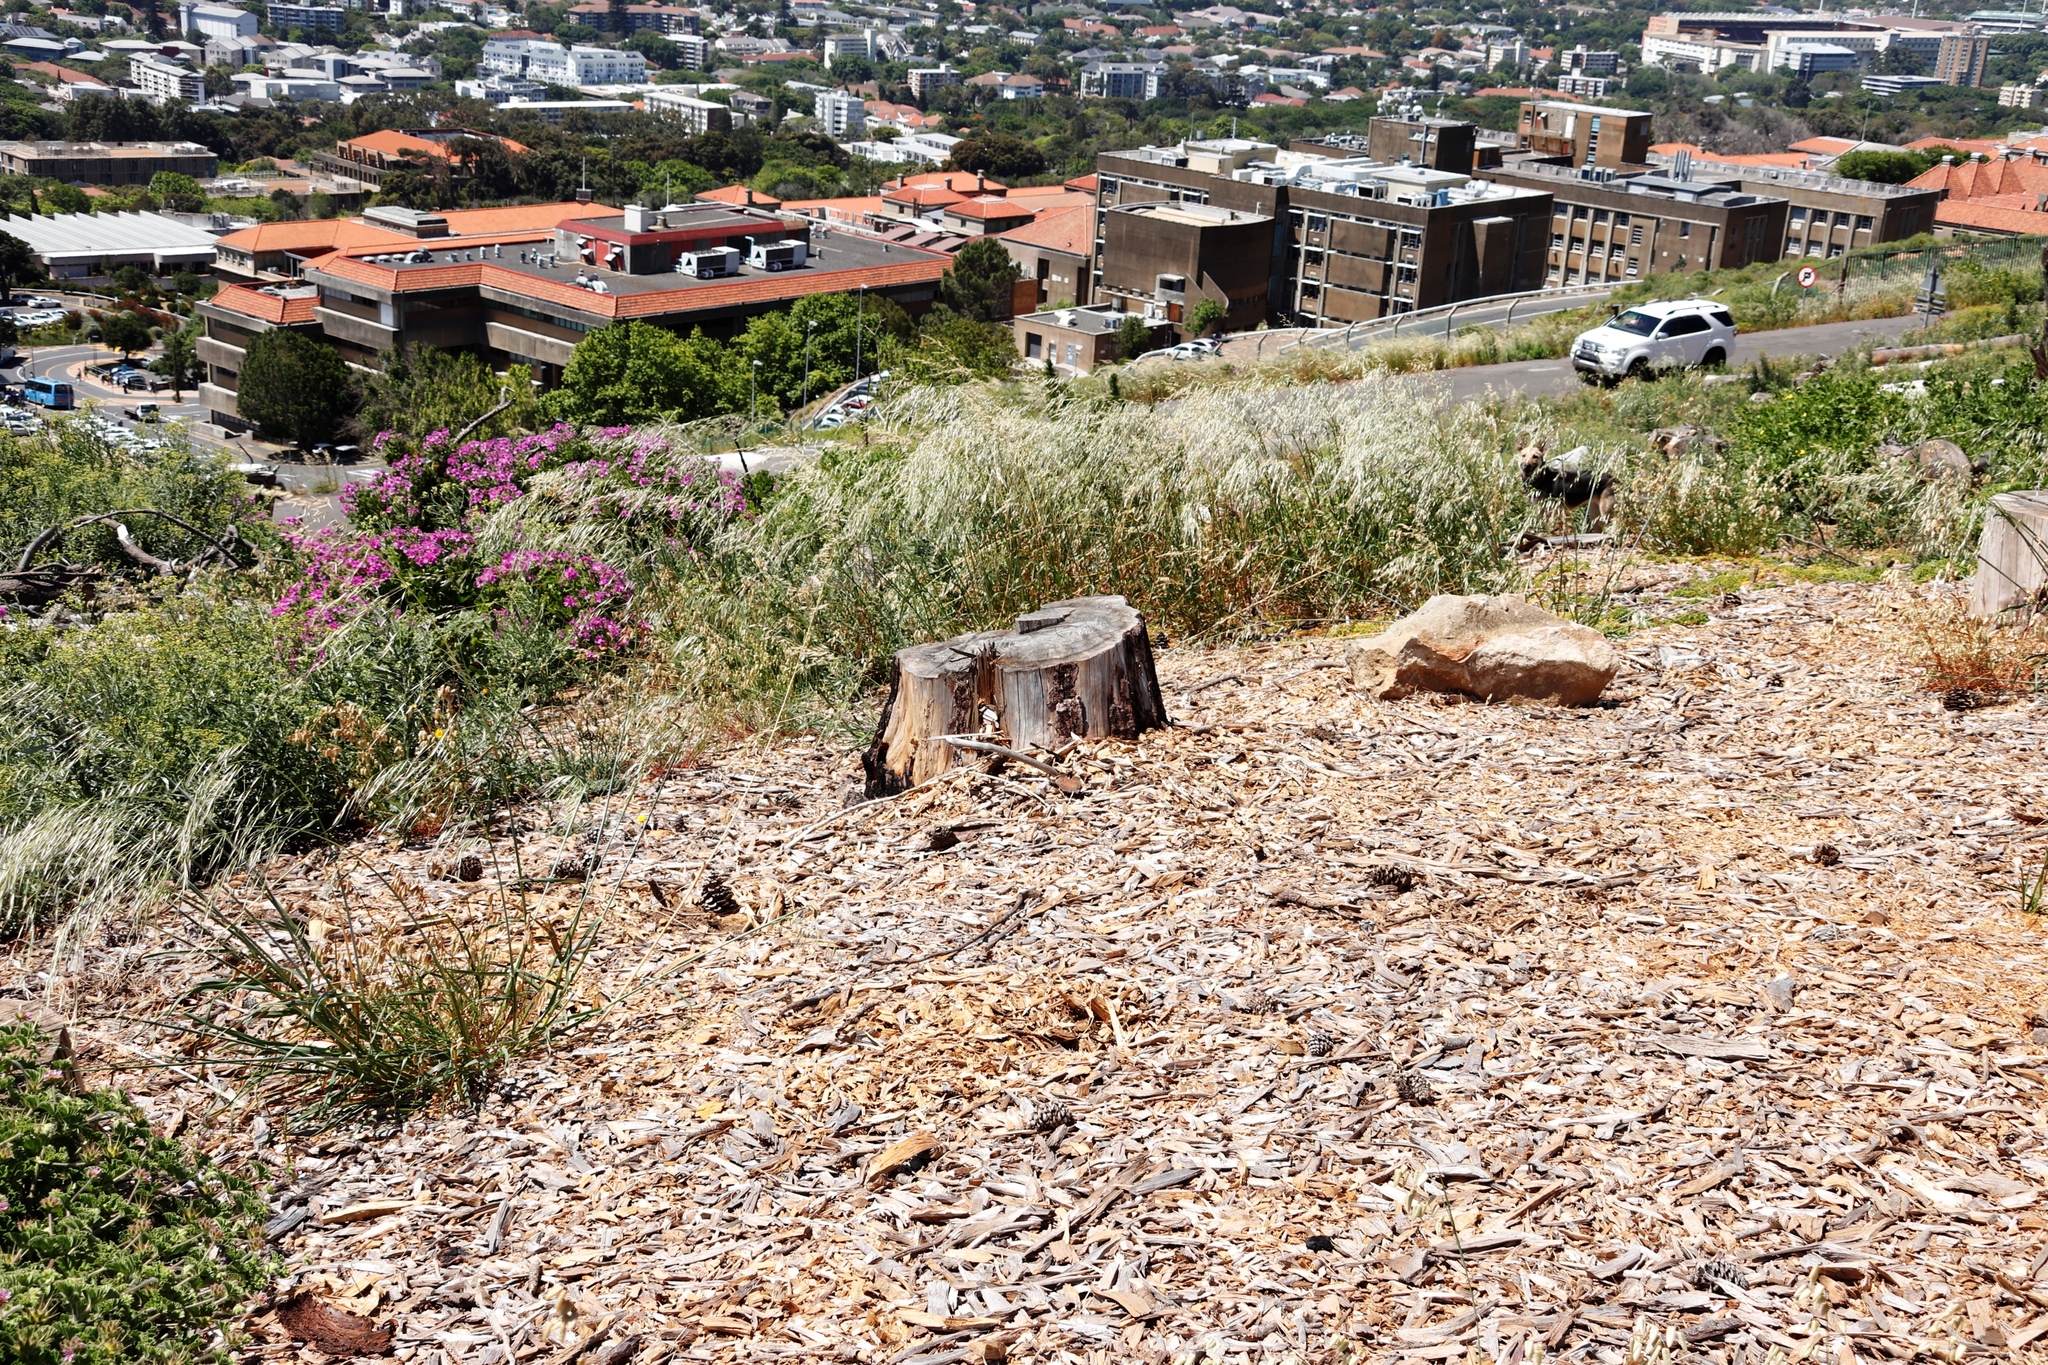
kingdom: Plantae
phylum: Tracheophyta
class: Liliopsida
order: Poales
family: Poaceae
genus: Avena
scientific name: Avena fatua
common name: Wild oat
